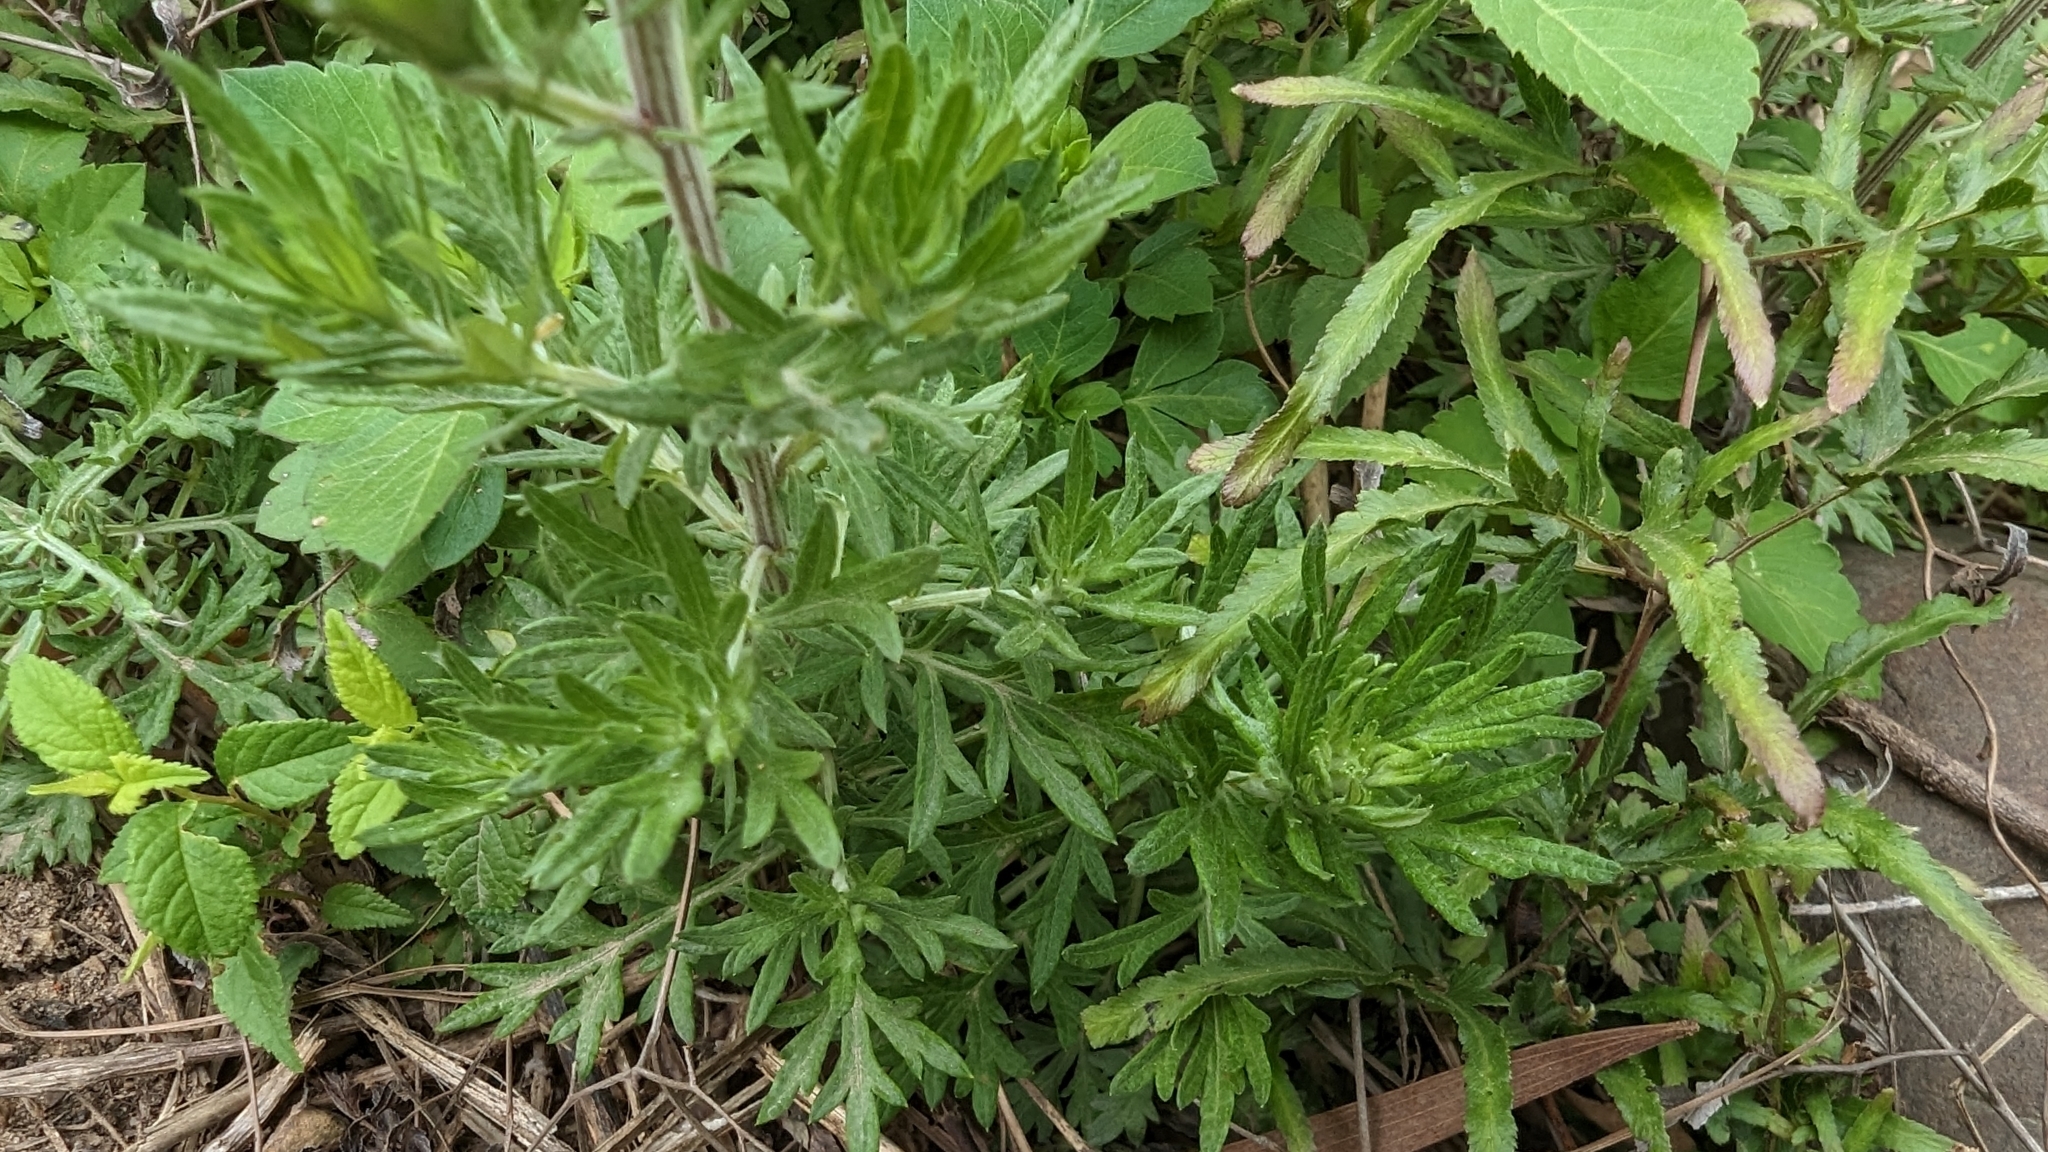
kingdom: Plantae
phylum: Tracheophyta
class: Magnoliopsida
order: Asterales
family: Asteraceae
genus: Artemisia
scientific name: Artemisia indica
